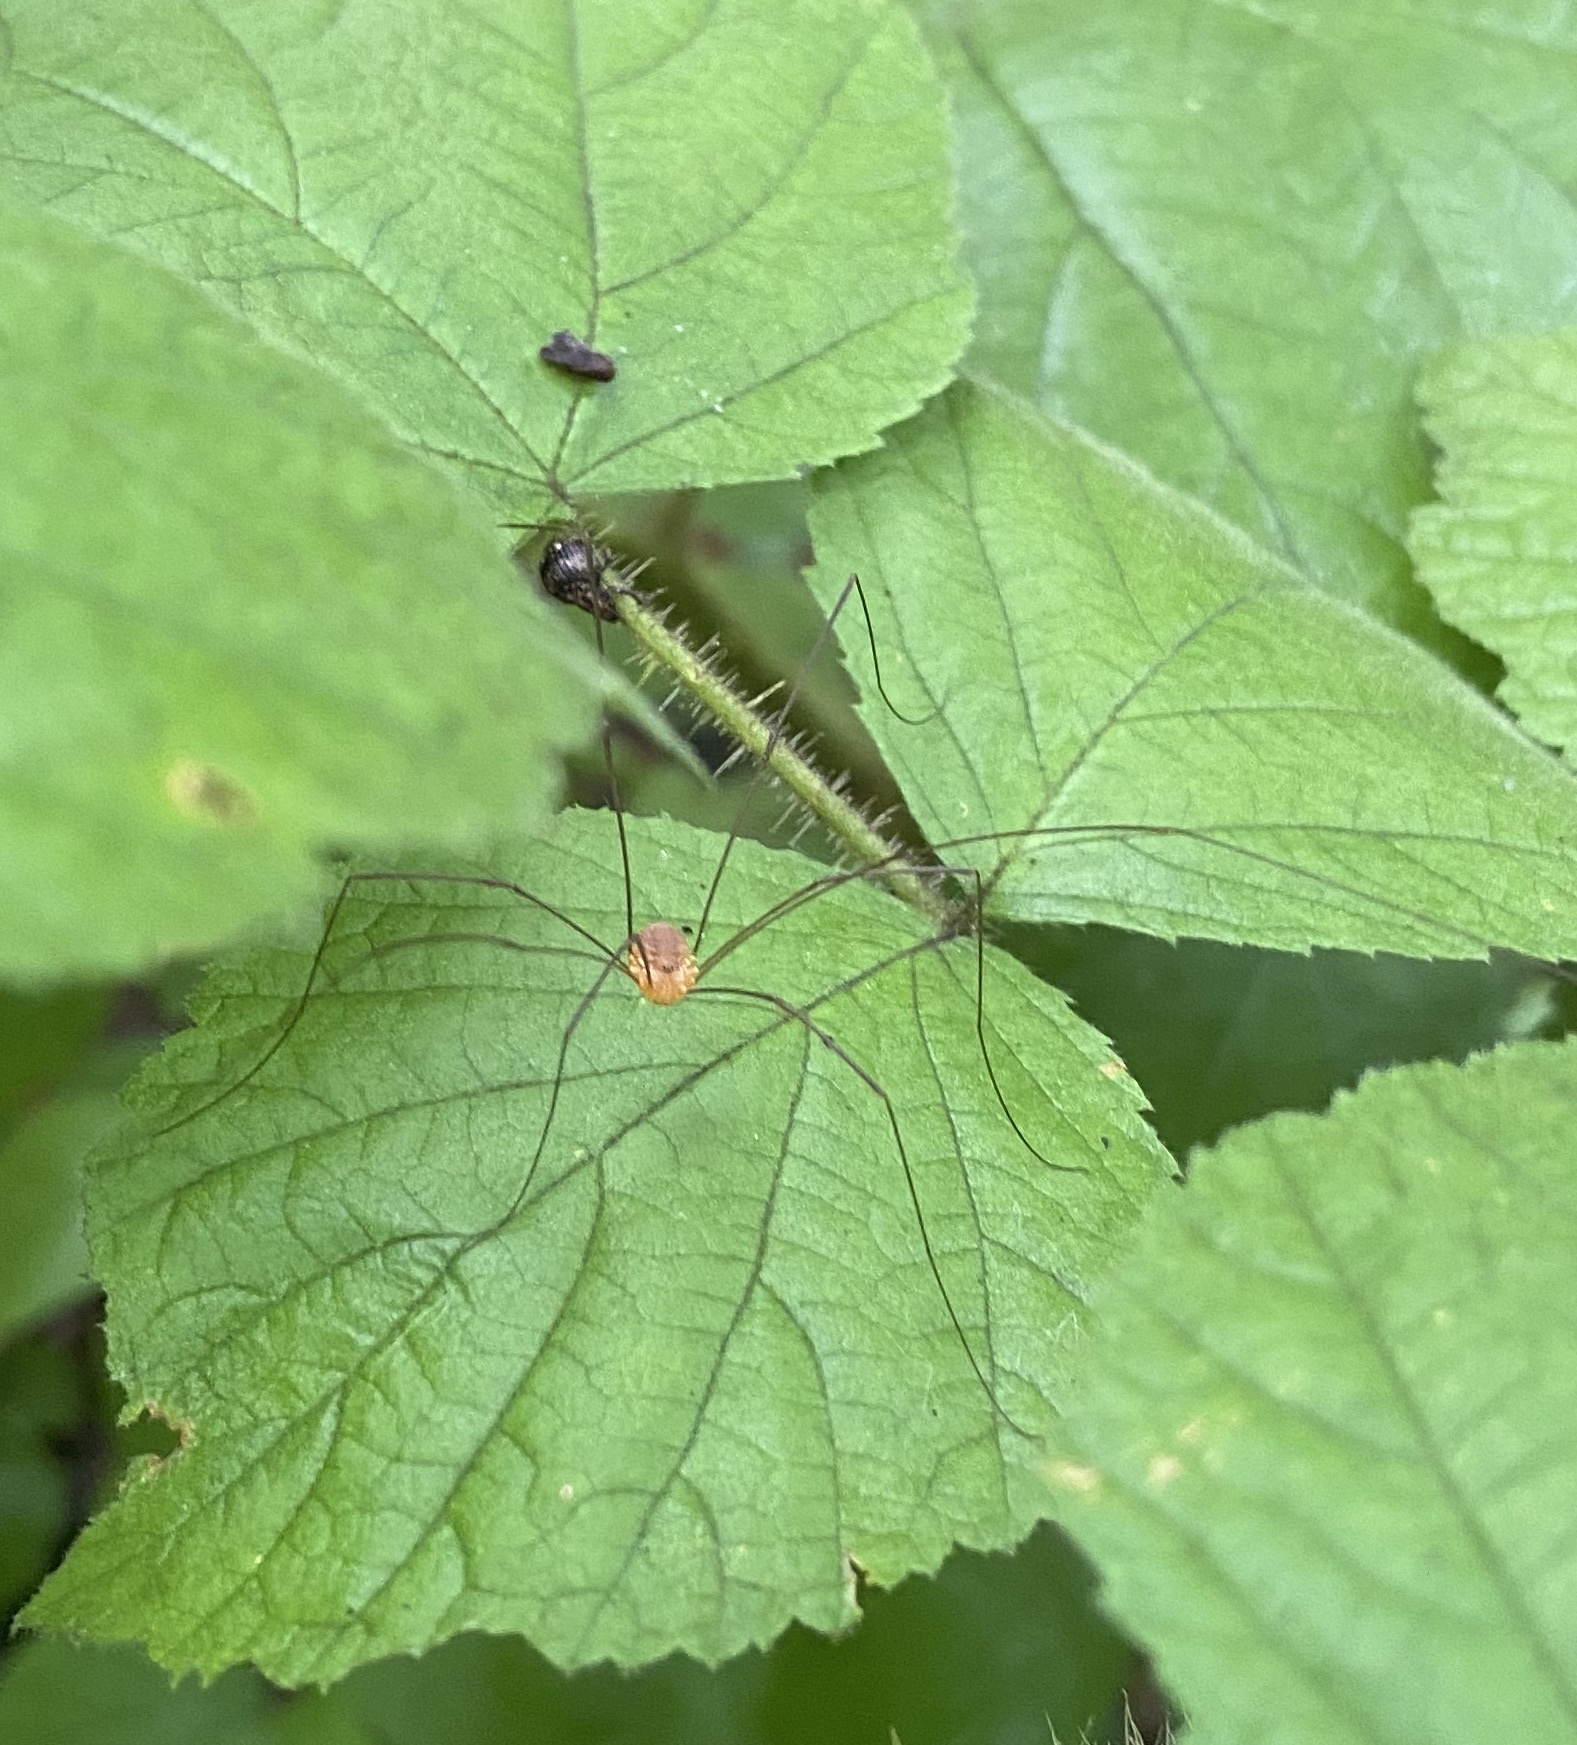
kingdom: Animalia
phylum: Arthropoda
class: Arachnida
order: Opiliones
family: Sclerosomatidae
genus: Leiobunum
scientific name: Leiobunum bracchiolum
